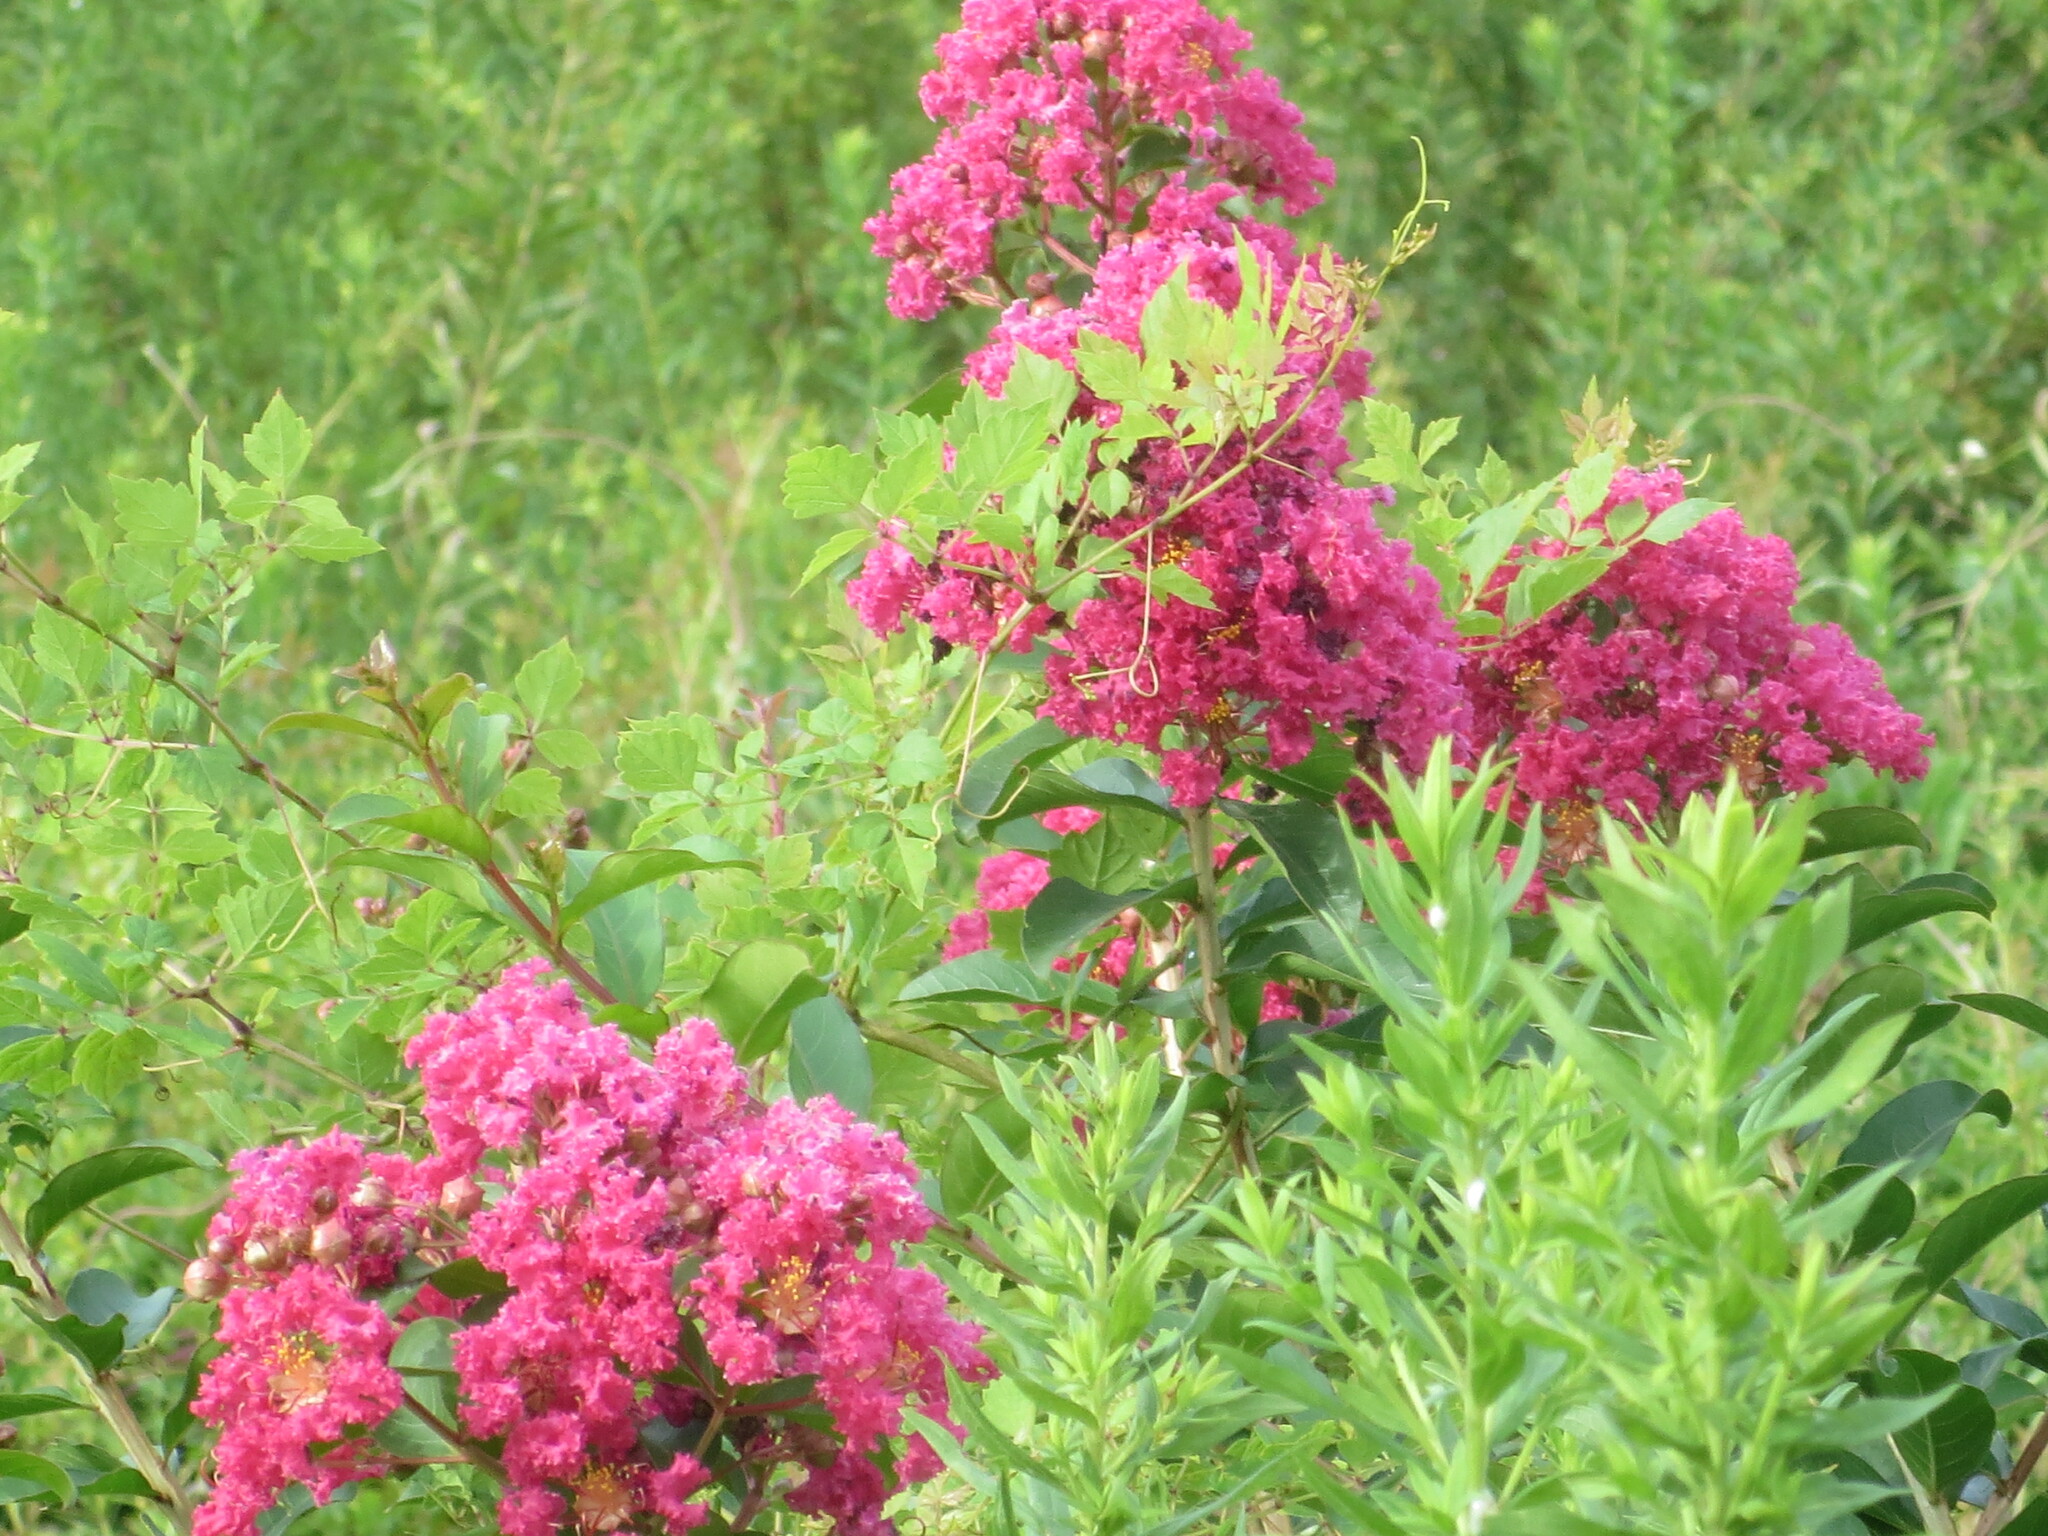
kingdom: Plantae
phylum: Tracheophyta
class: Magnoliopsida
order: Myrtales
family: Lythraceae
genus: Lagerstroemia
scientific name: Lagerstroemia indica
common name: Crape-myrtle
